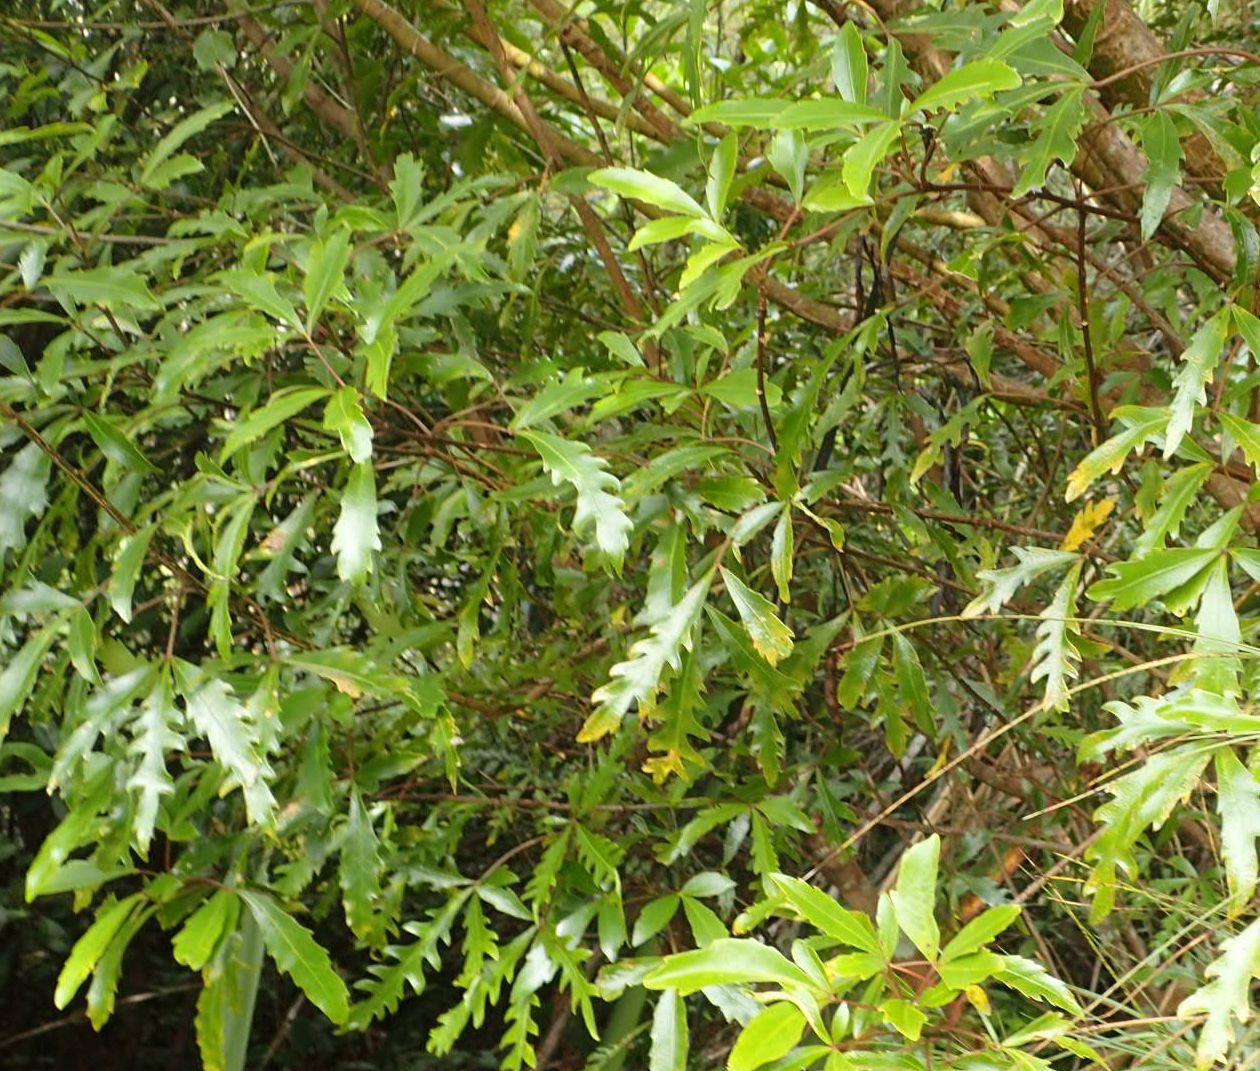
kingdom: Plantae
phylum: Tracheophyta
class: Magnoliopsida
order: Apiales
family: Araliaceae
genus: Raukaua
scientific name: Raukaua simplex
